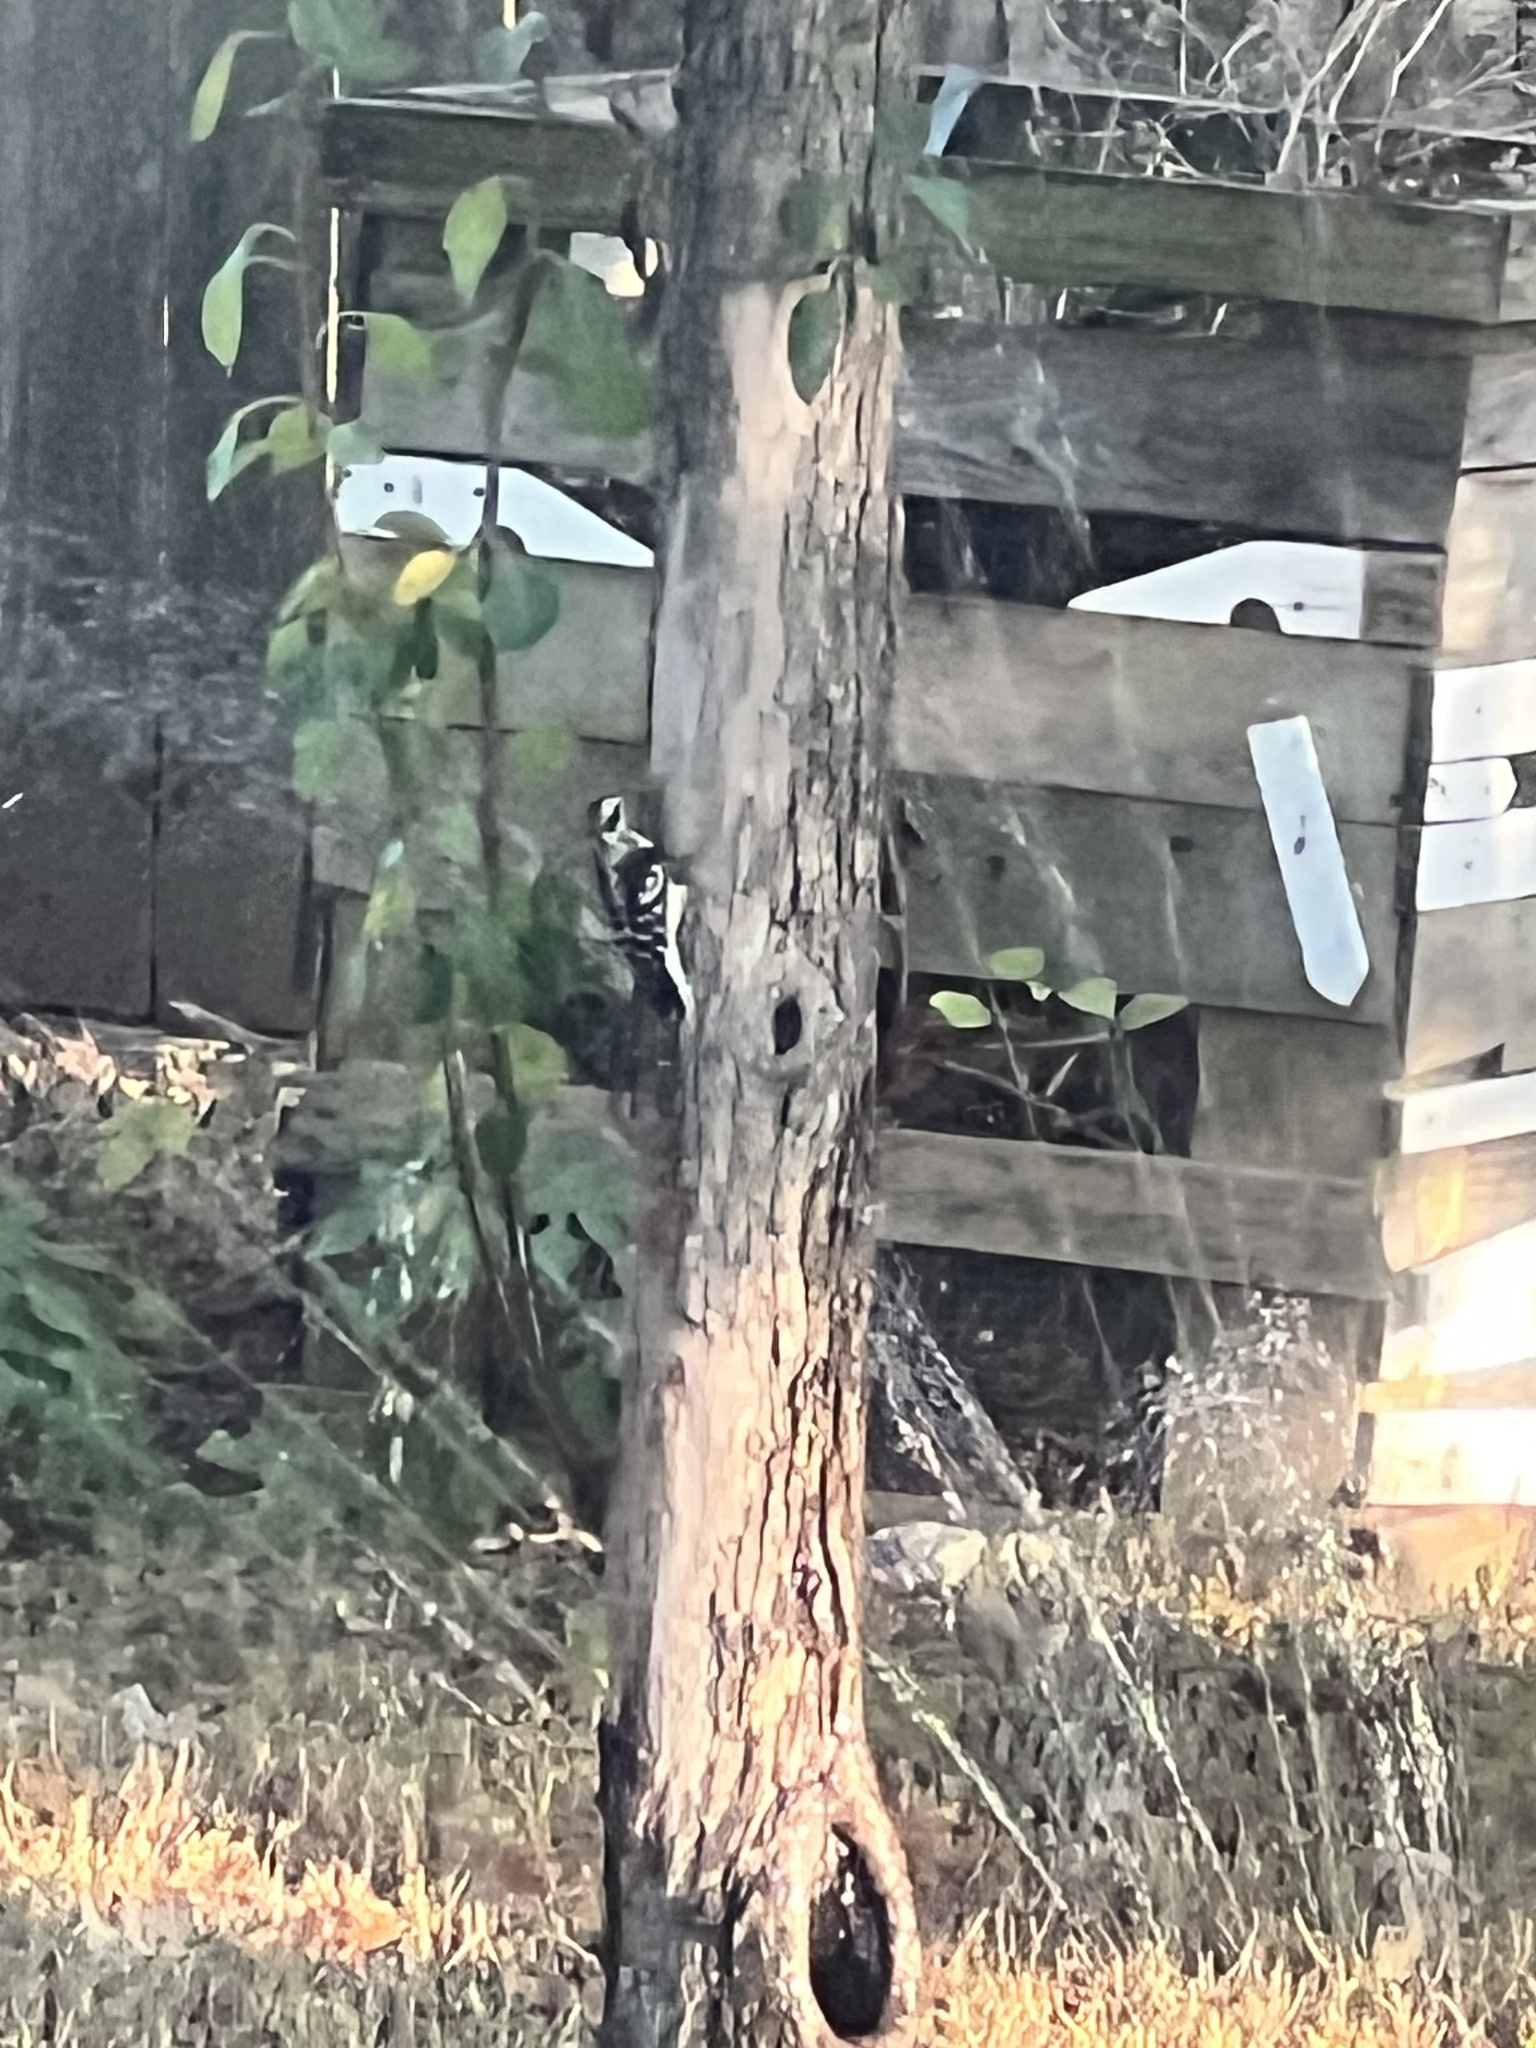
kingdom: Animalia
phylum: Chordata
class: Aves
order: Piciformes
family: Picidae
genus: Dryobates
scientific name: Dryobates pubescens
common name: Downy woodpecker
